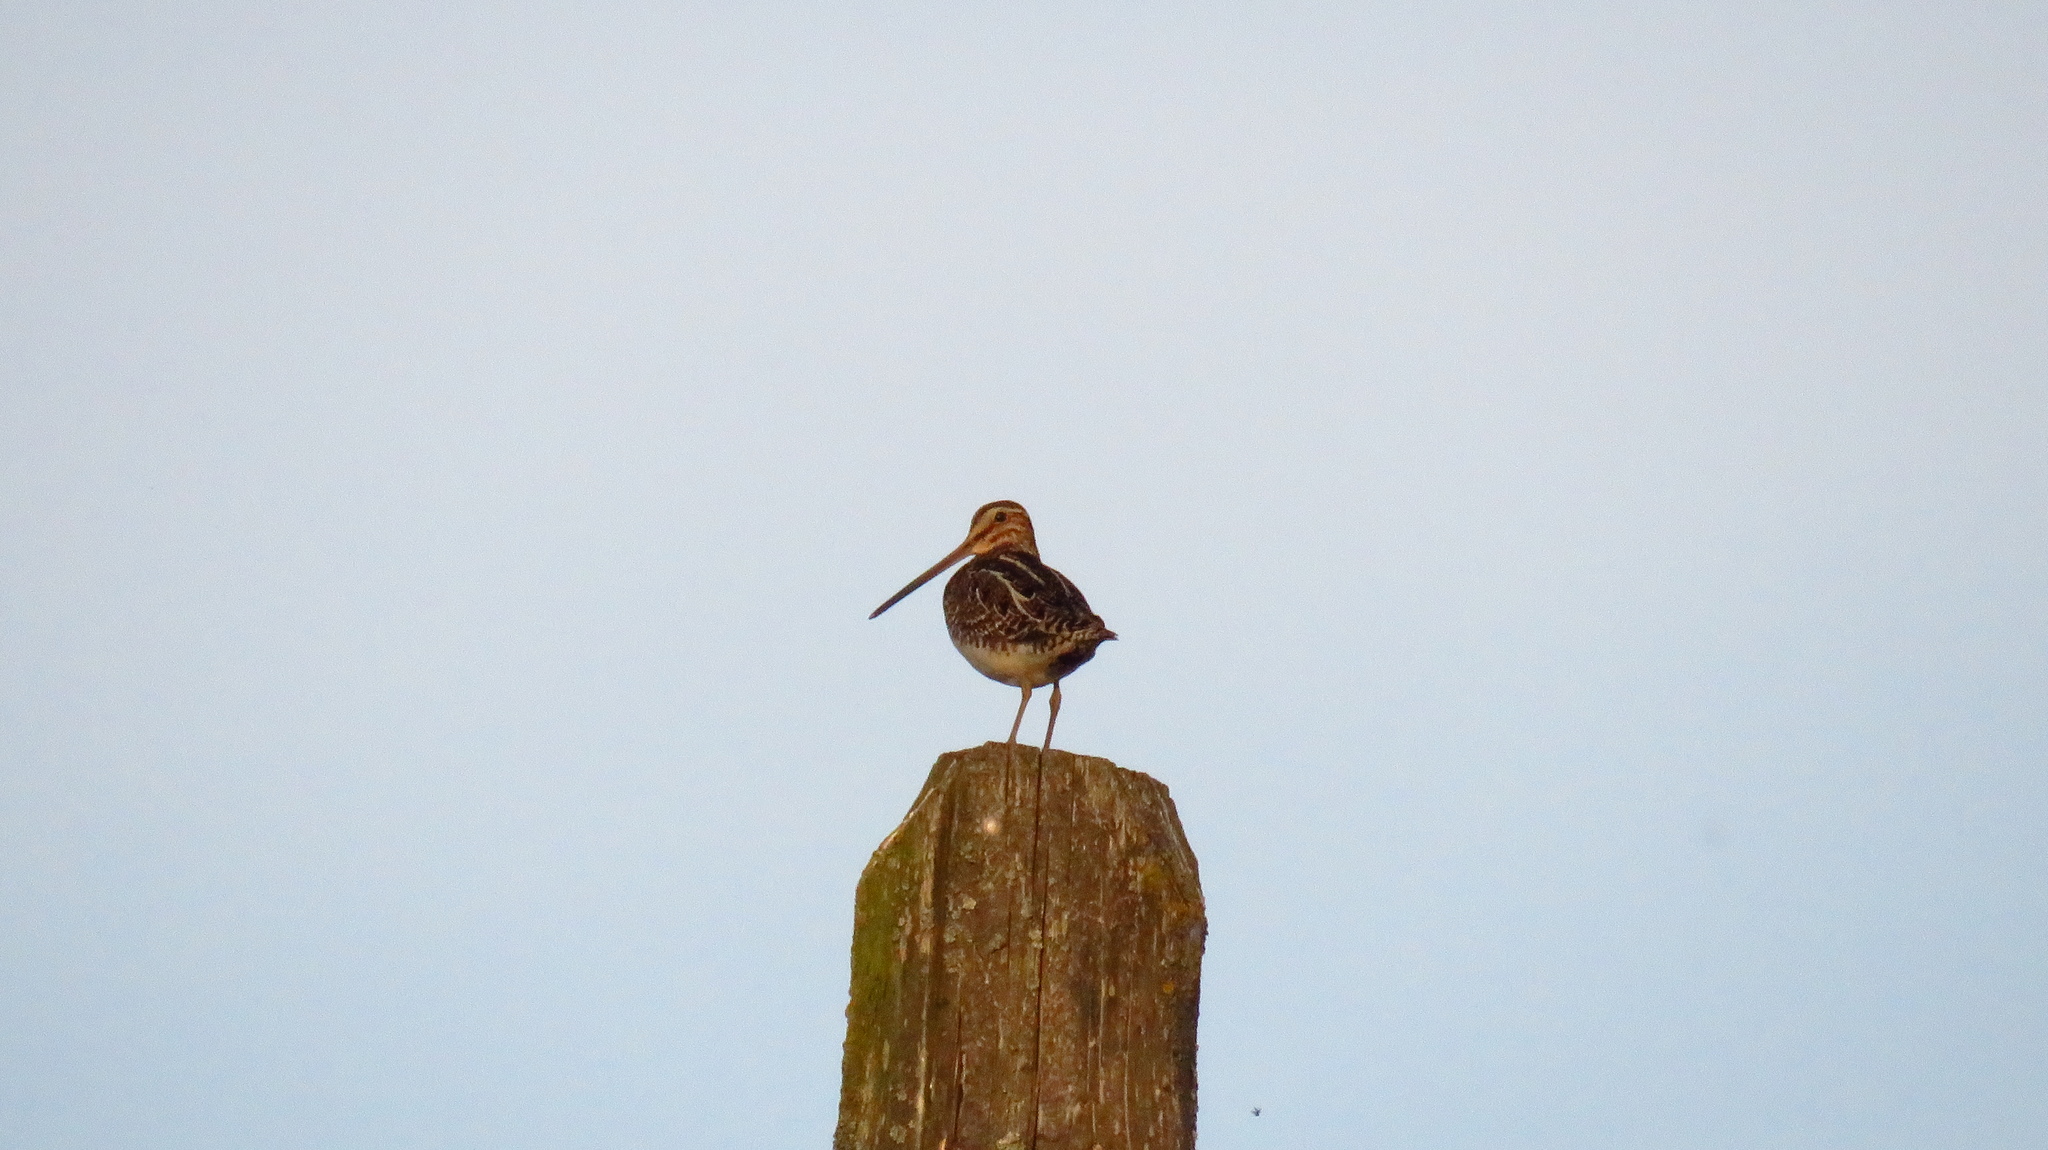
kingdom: Animalia
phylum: Chordata
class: Aves
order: Charadriiformes
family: Scolopacidae
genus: Gallinago
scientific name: Gallinago gallinago
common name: Common snipe
